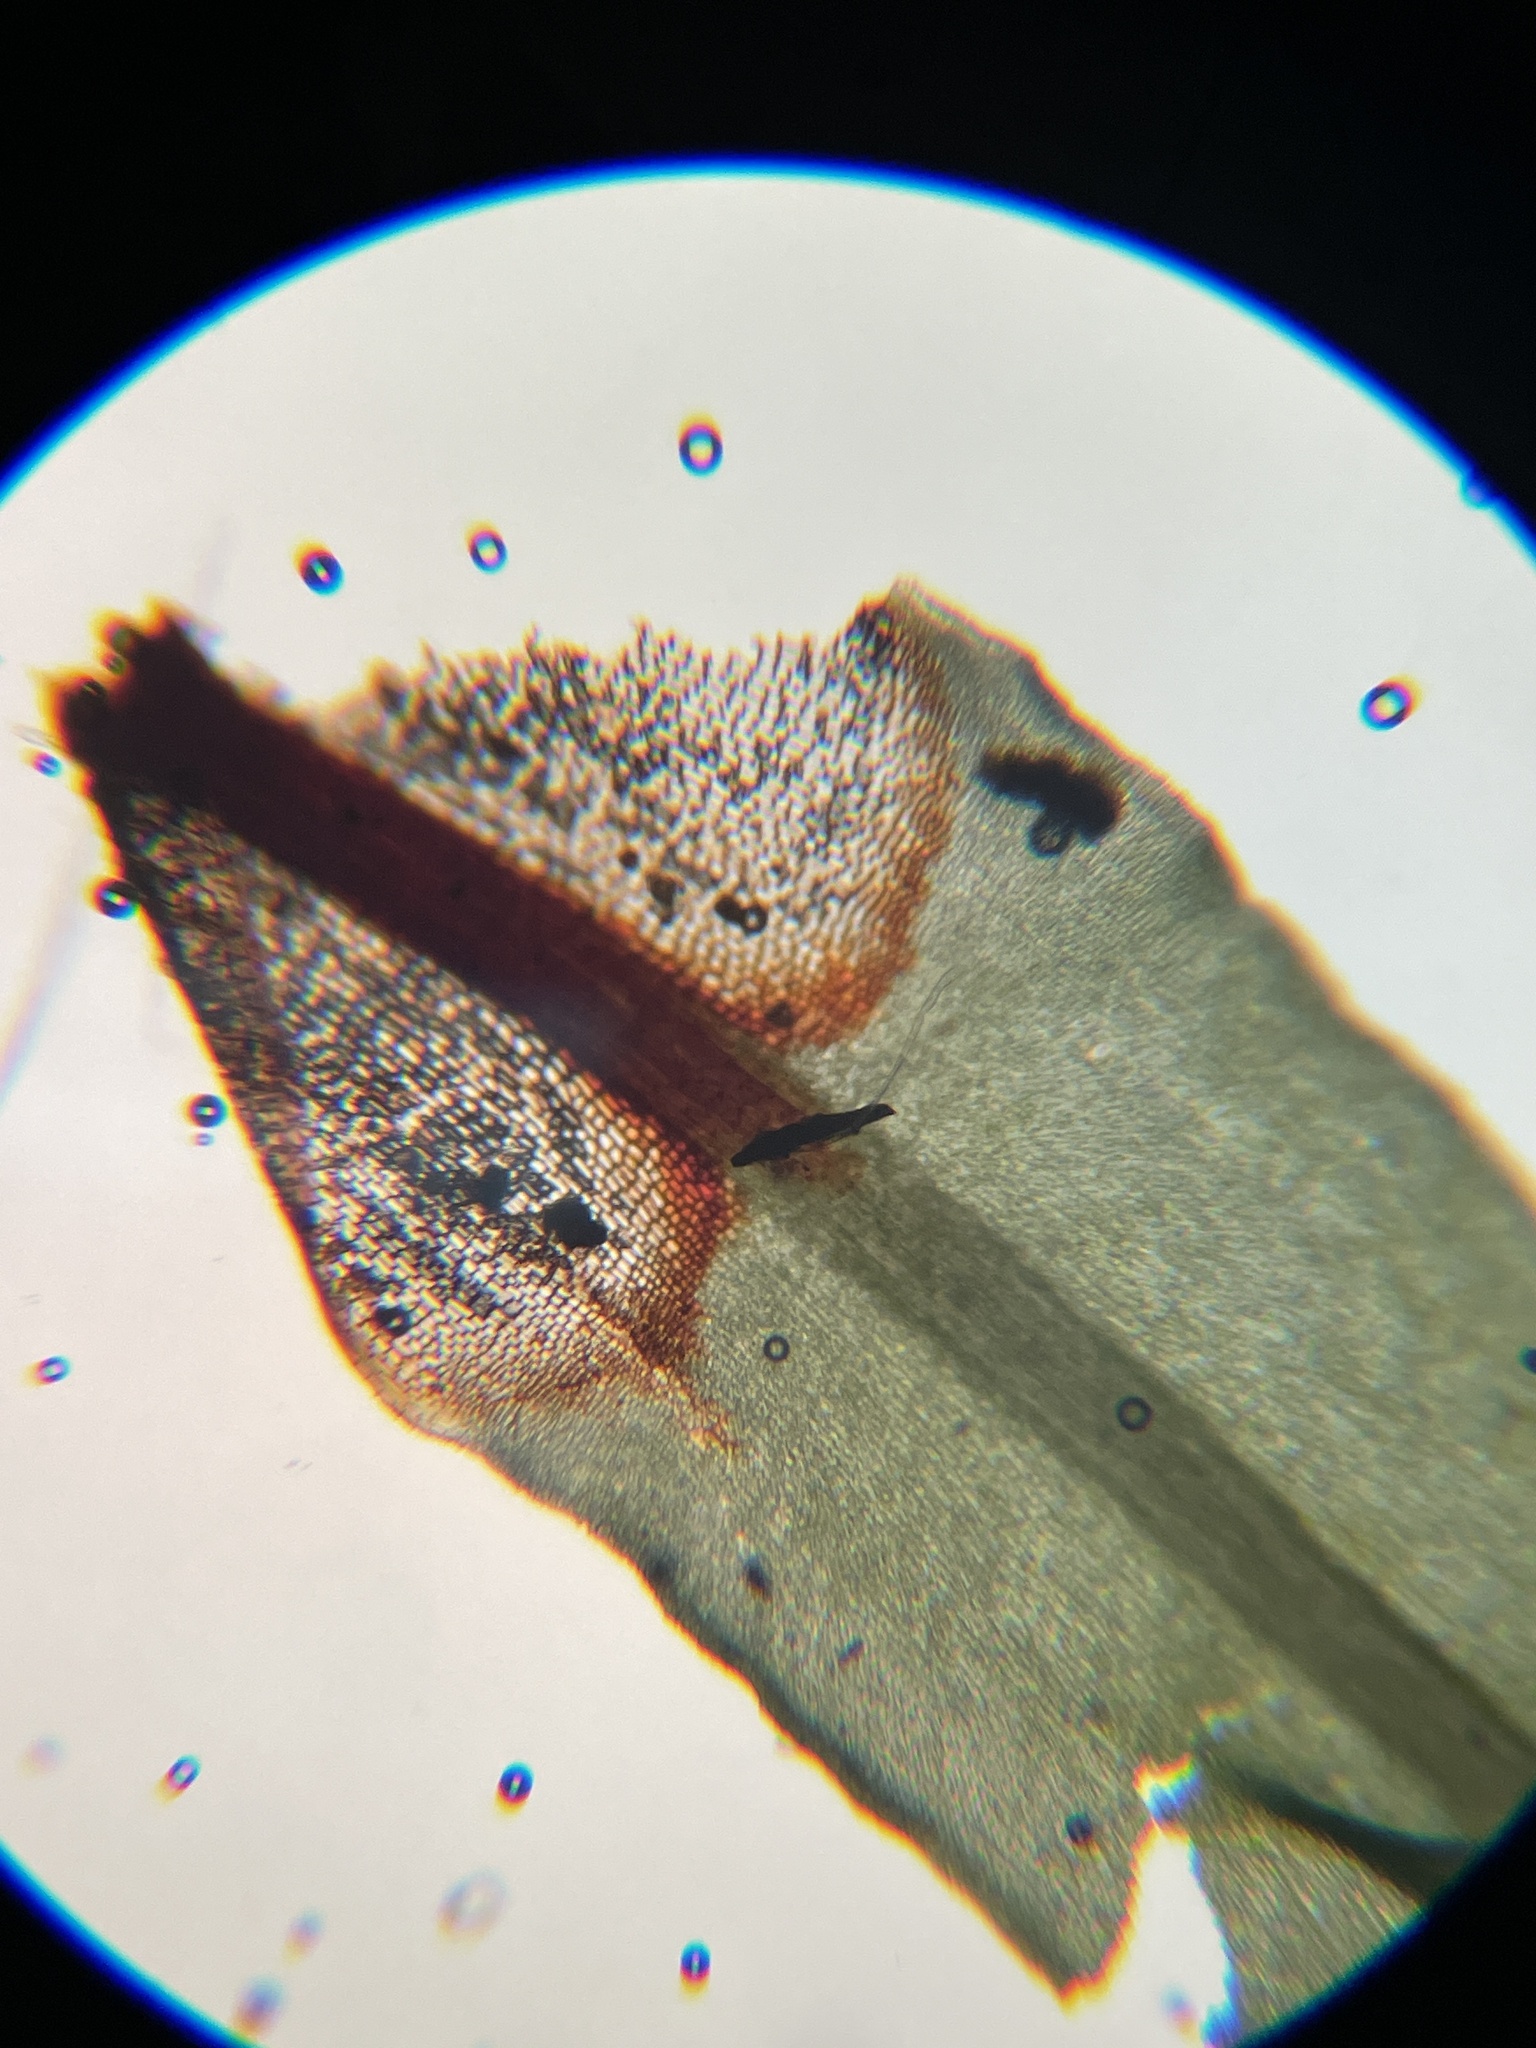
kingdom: Plantae
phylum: Bryophyta
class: Bryopsida
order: Encalyptales
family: Encalyptaceae
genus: Encalypta
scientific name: Encalypta procera
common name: Spiral extinguisher moss
